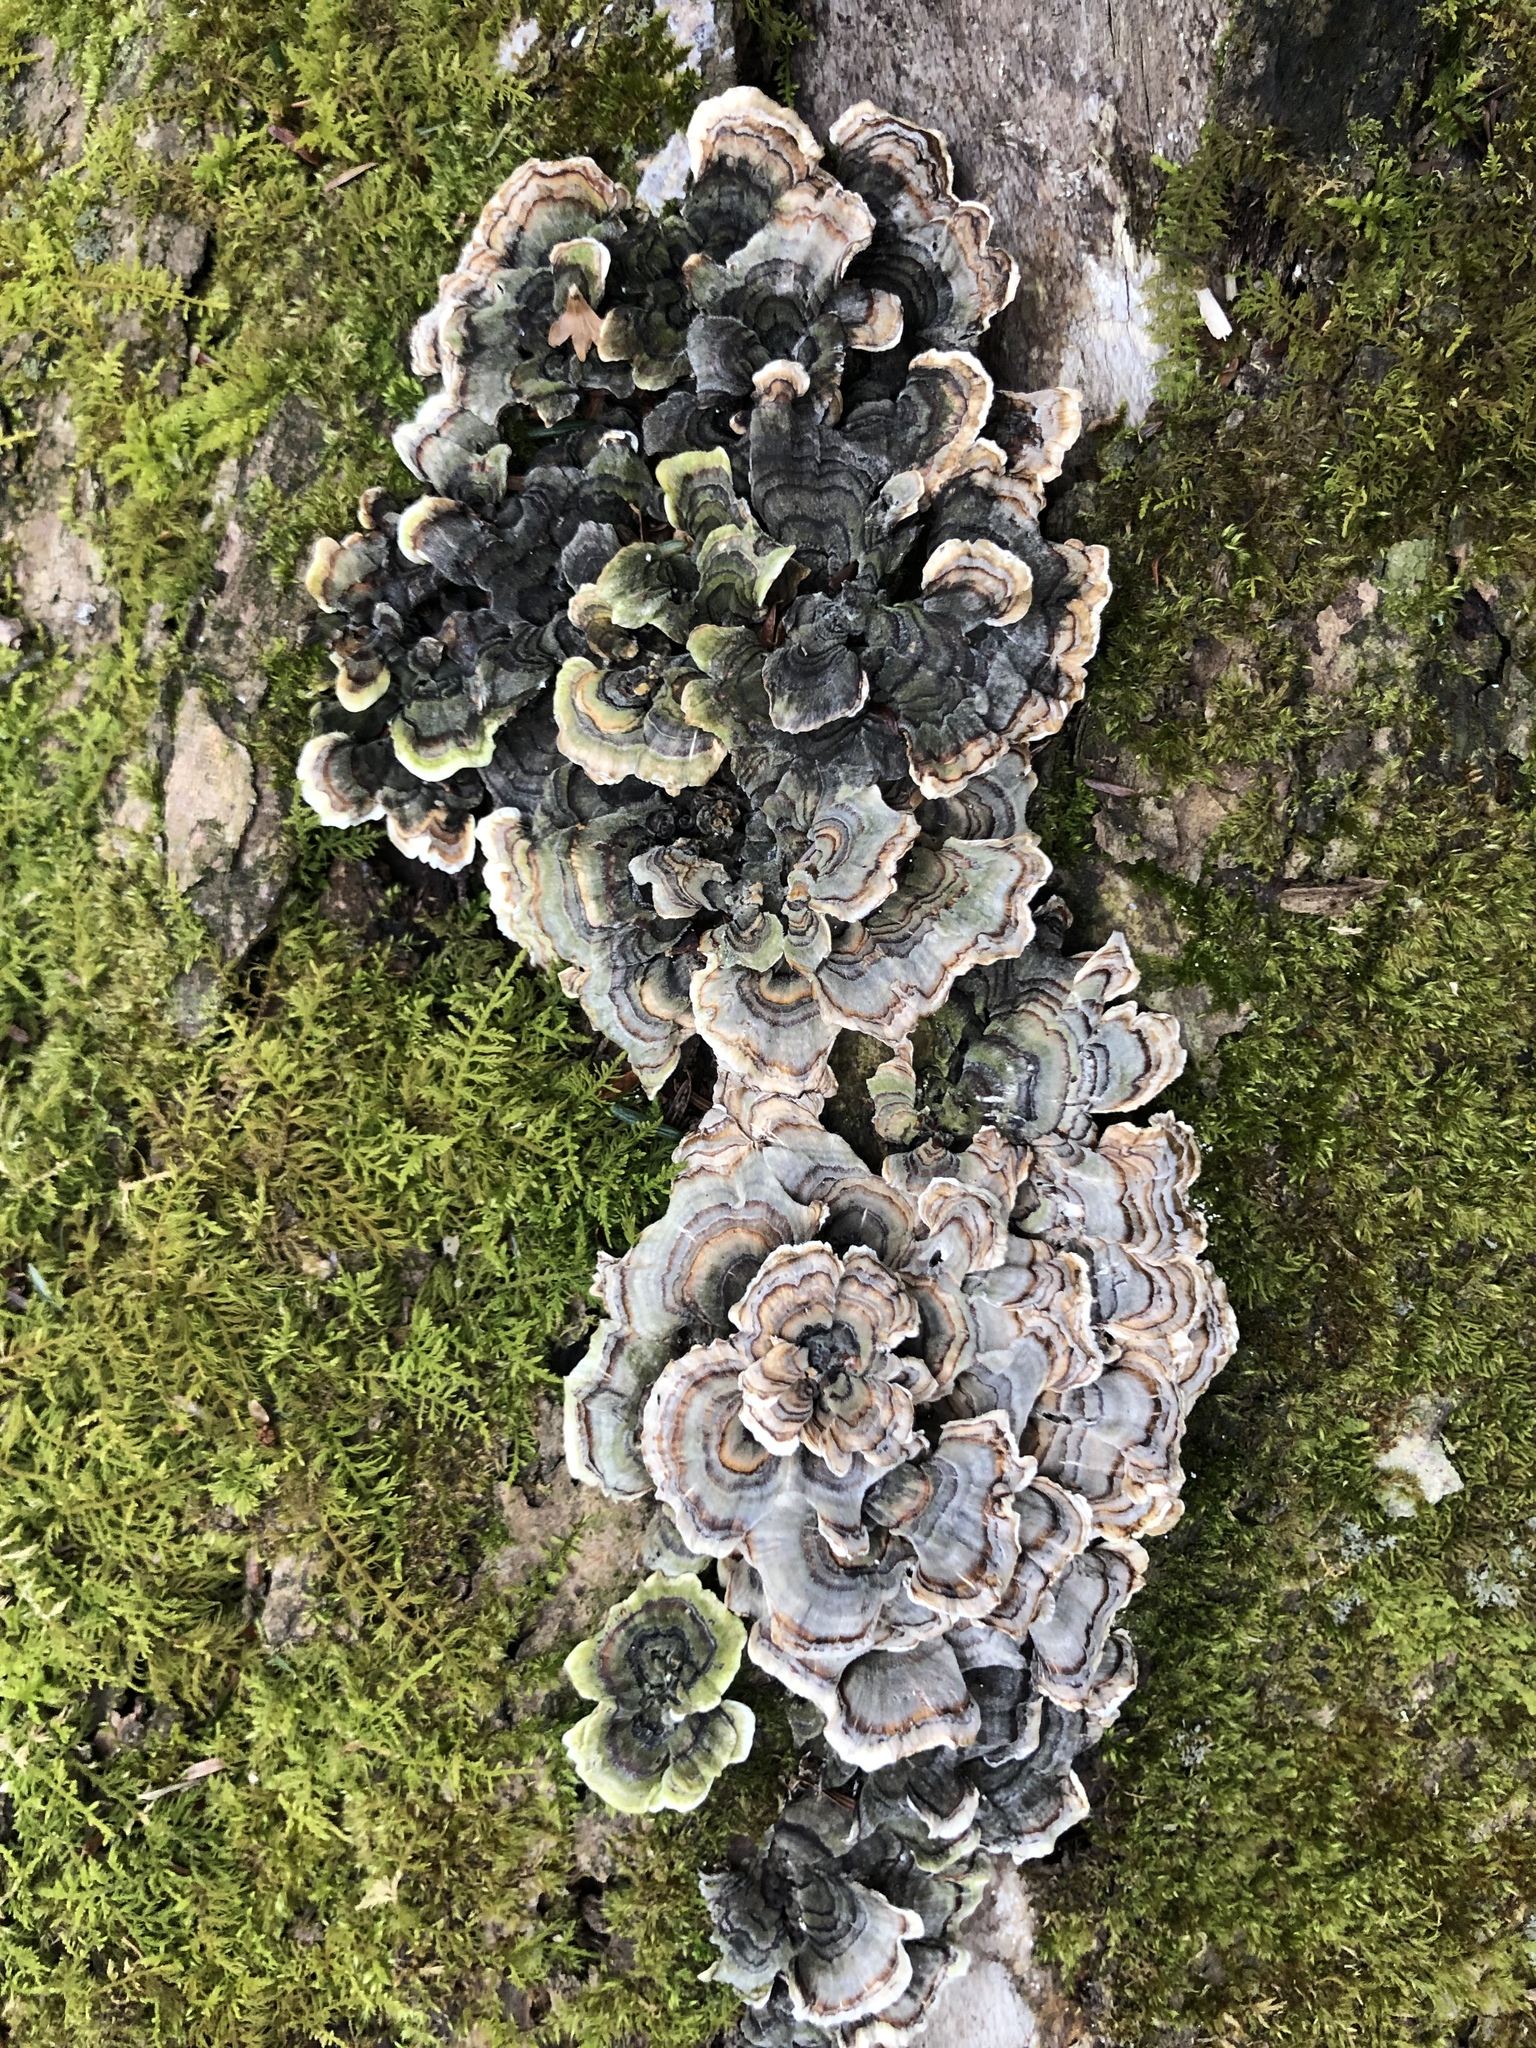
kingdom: Fungi
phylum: Basidiomycota
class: Agaricomycetes
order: Polyporales
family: Polyporaceae
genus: Trametes
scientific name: Trametes versicolor
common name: Turkeytail
